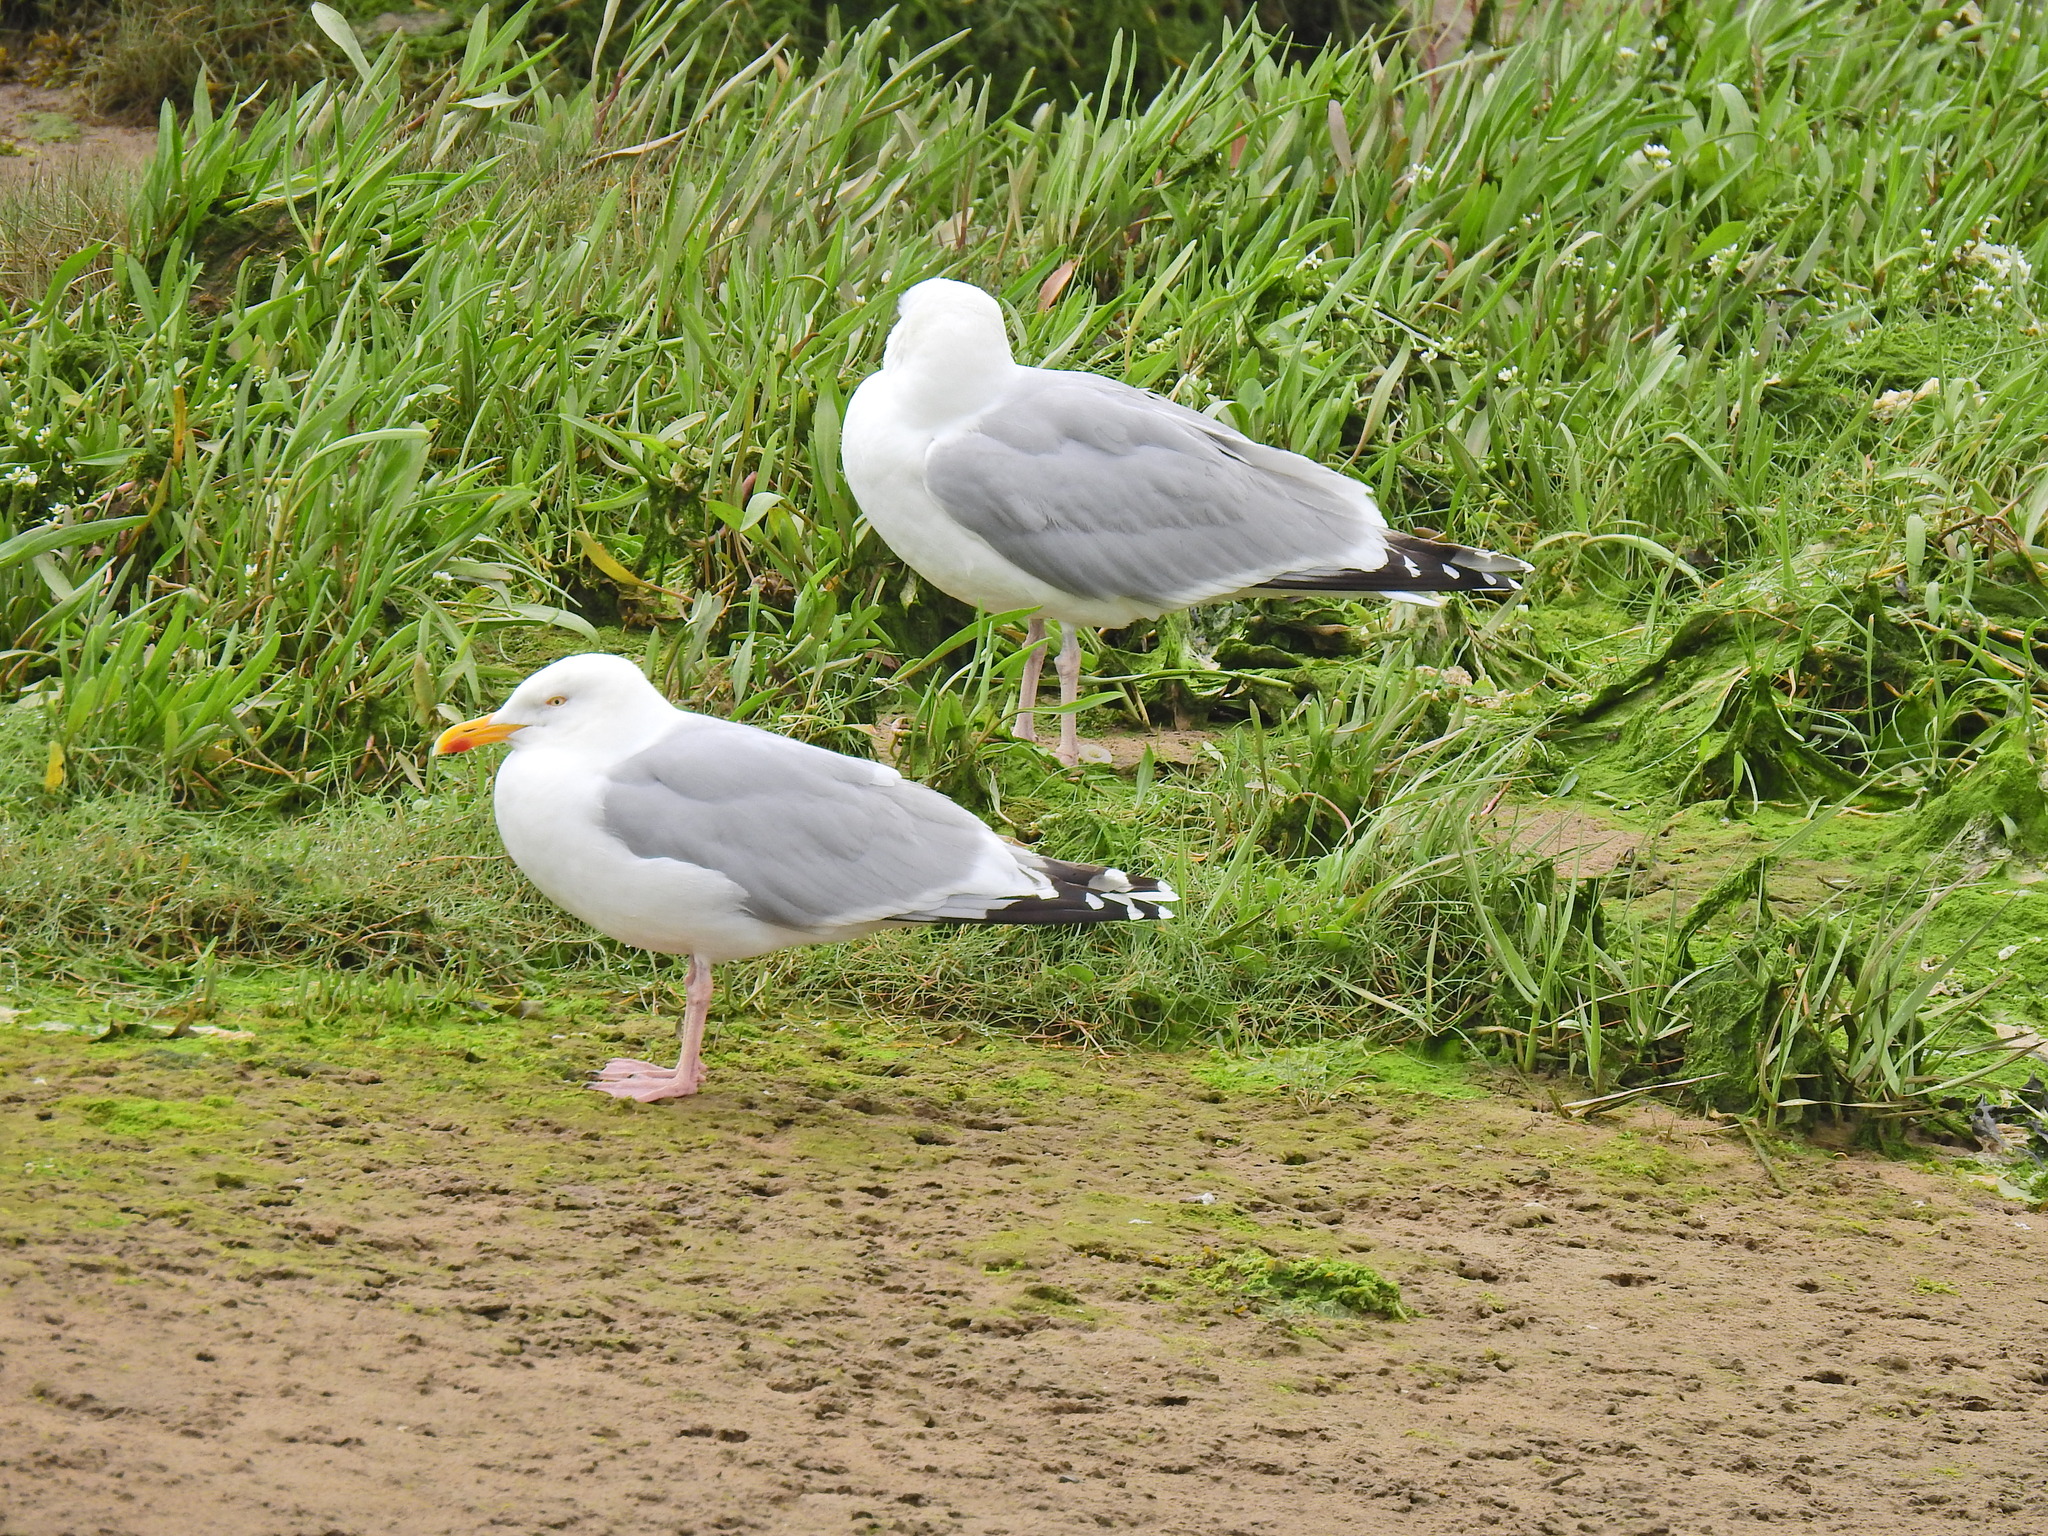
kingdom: Animalia
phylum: Chordata
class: Aves
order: Charadriiformes
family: Laridae
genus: Larus
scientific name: Larus argentatus
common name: Herring gull
